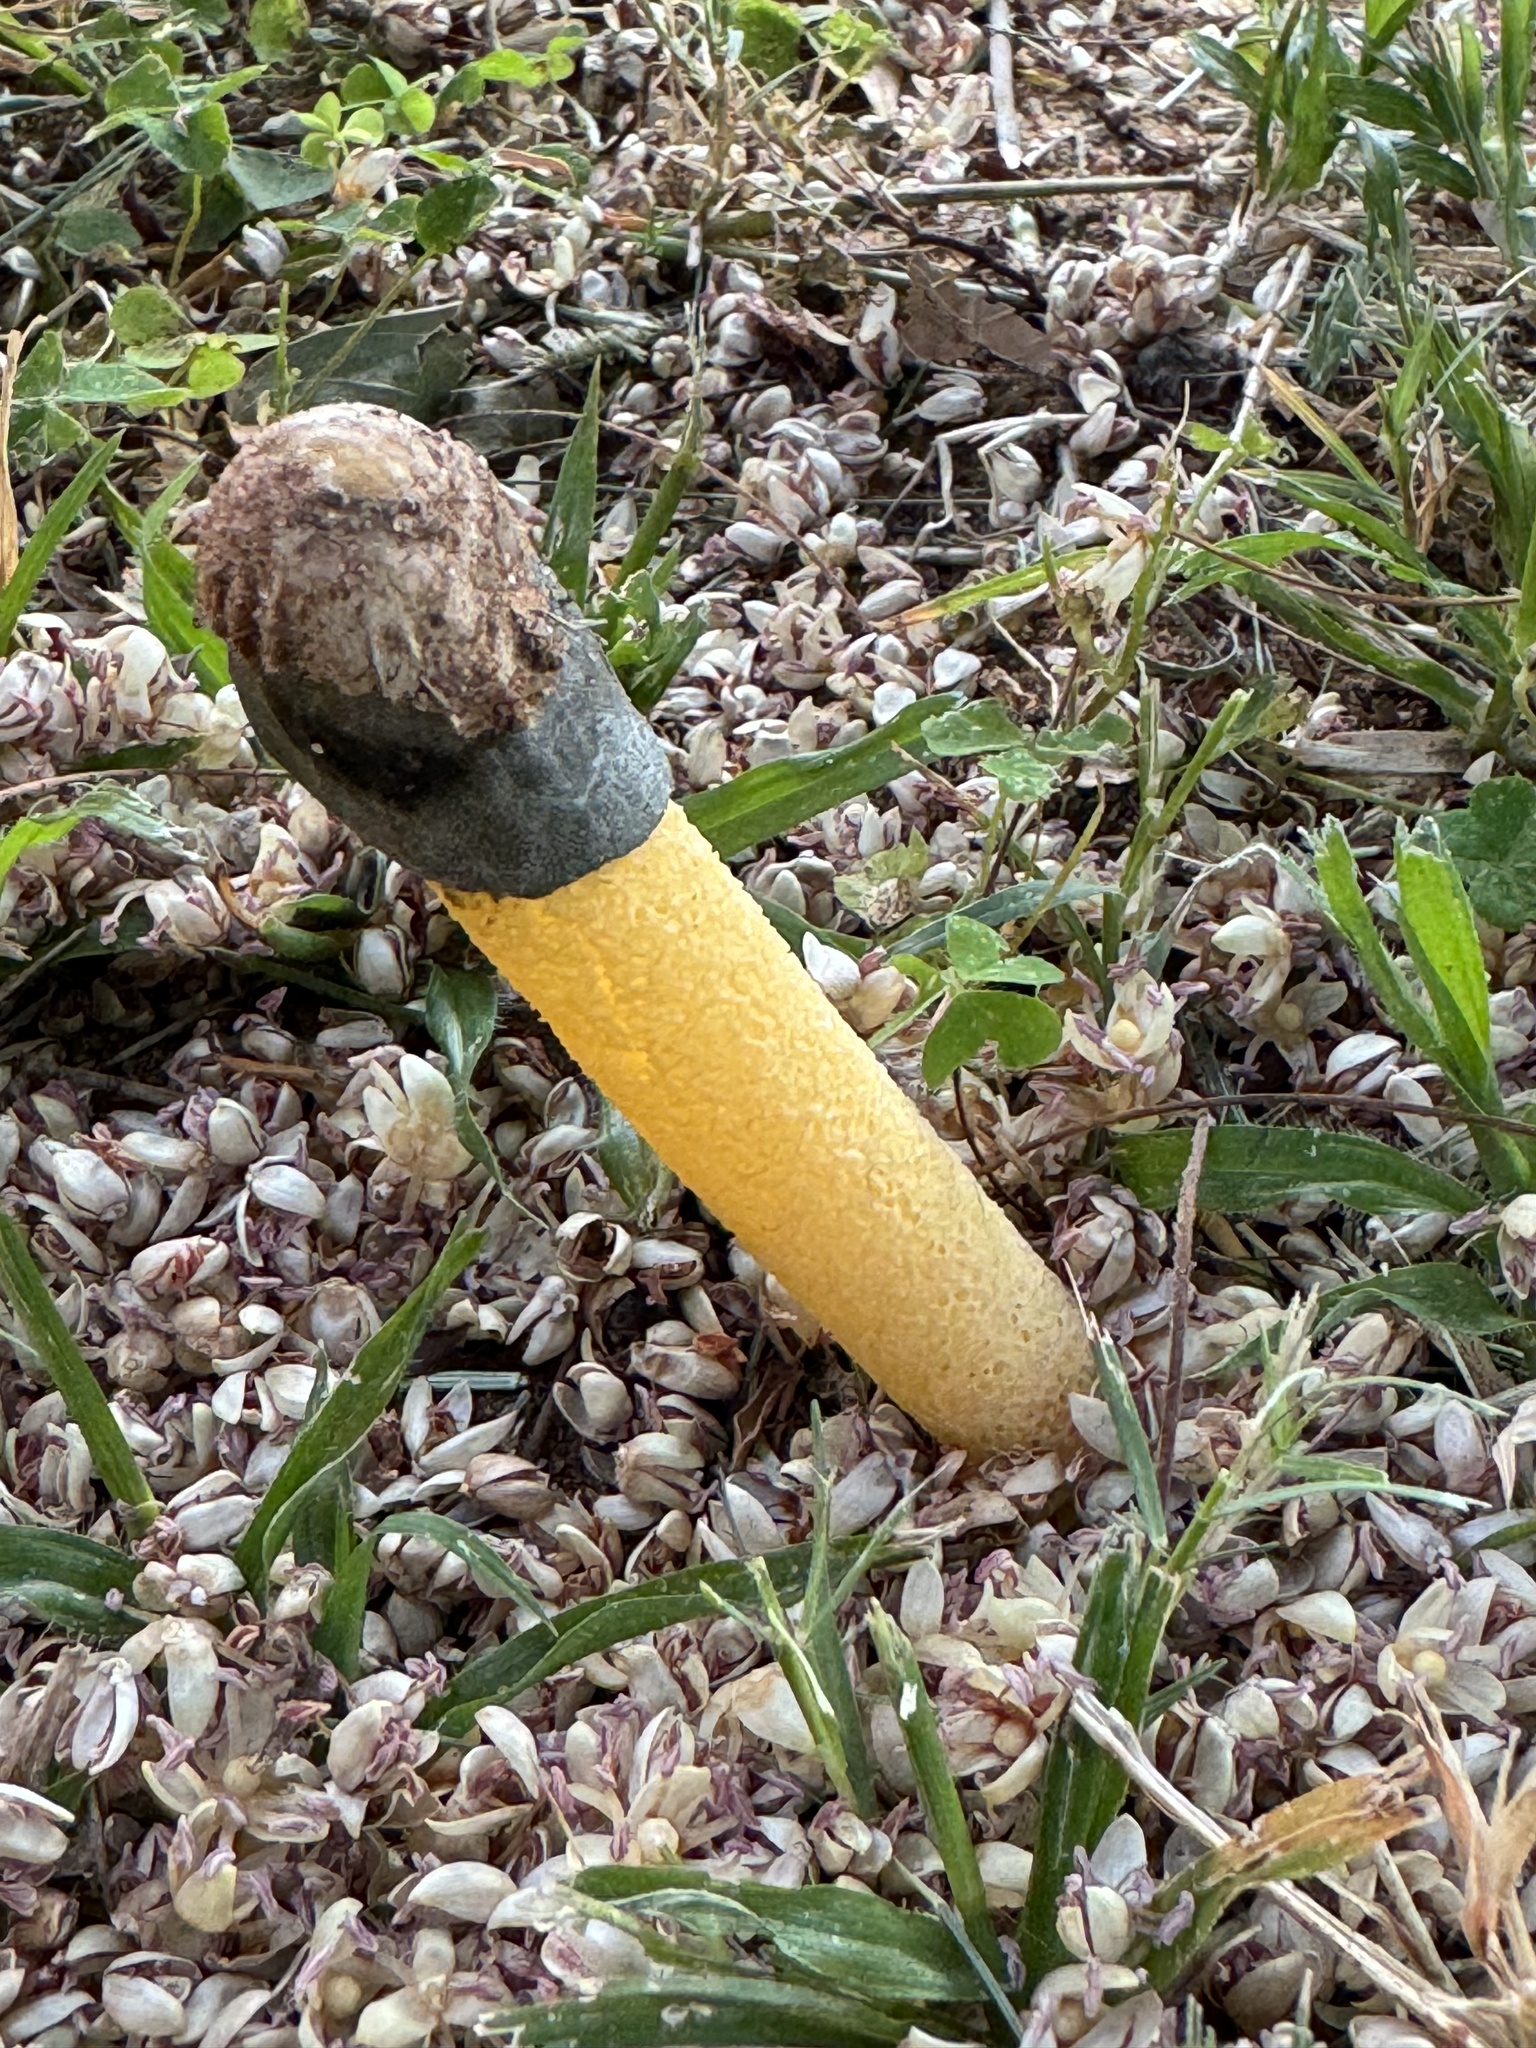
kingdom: Fungi
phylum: Basidiomycota
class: Agaricomycetes
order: Phallales
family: Phallaceae
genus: Phallus
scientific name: Phallus
